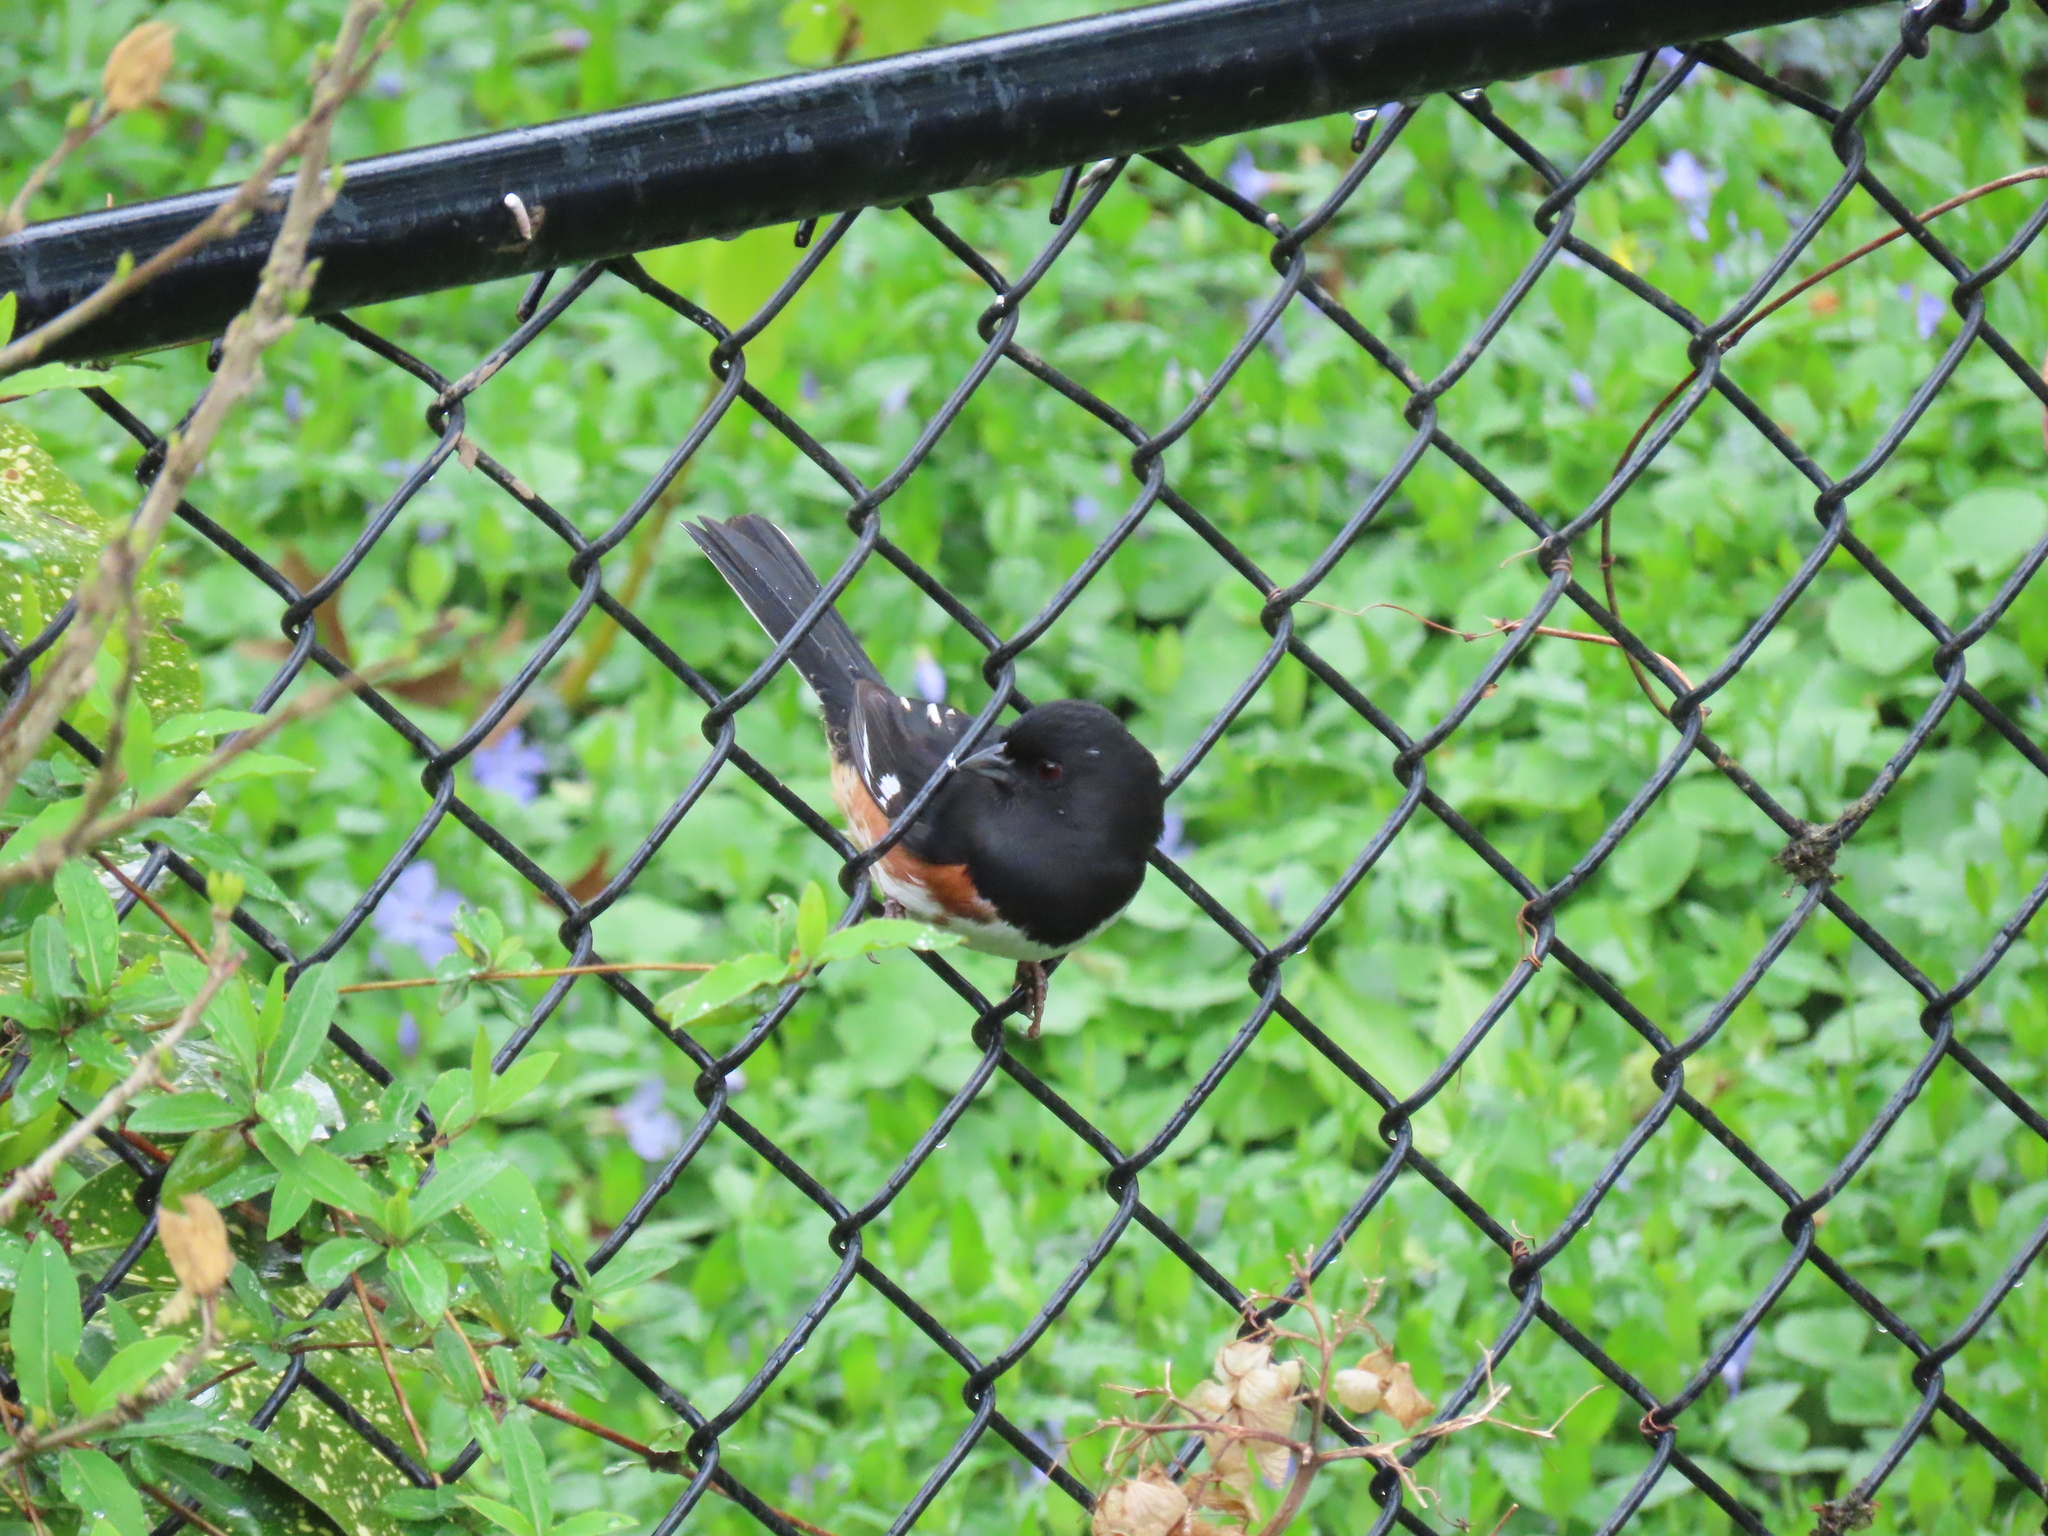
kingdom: Animalia
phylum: Chordata
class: Aves
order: Passeriformes
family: Passerellidae
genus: Pipilo
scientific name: Pipilo erythrophthalmus
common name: Eastern towhee
